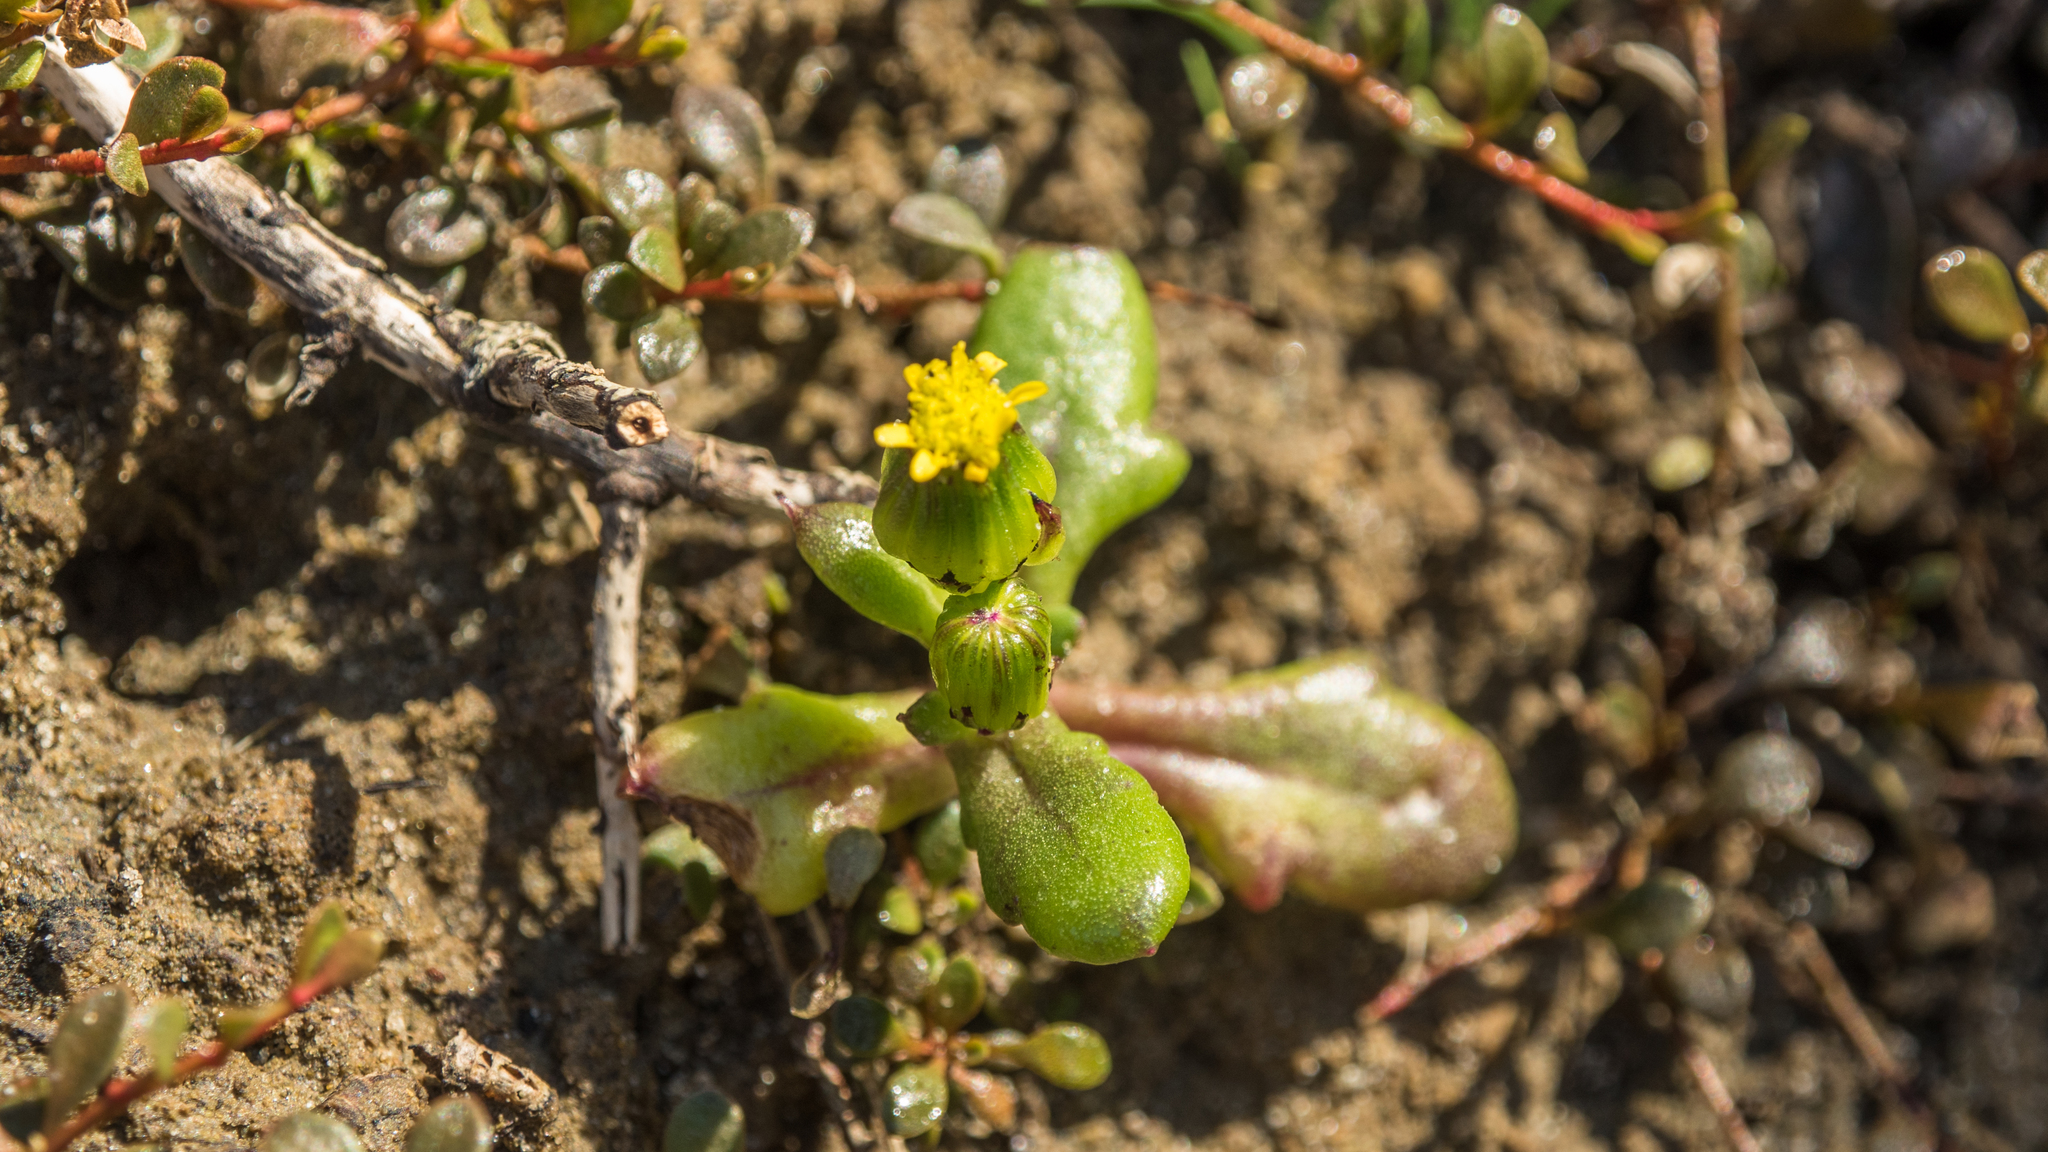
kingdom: Plantae
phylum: Tracheophyta
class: Magnoliopsida
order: Asterales
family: Asteraceae
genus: Senecio
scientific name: Senecio lautus
